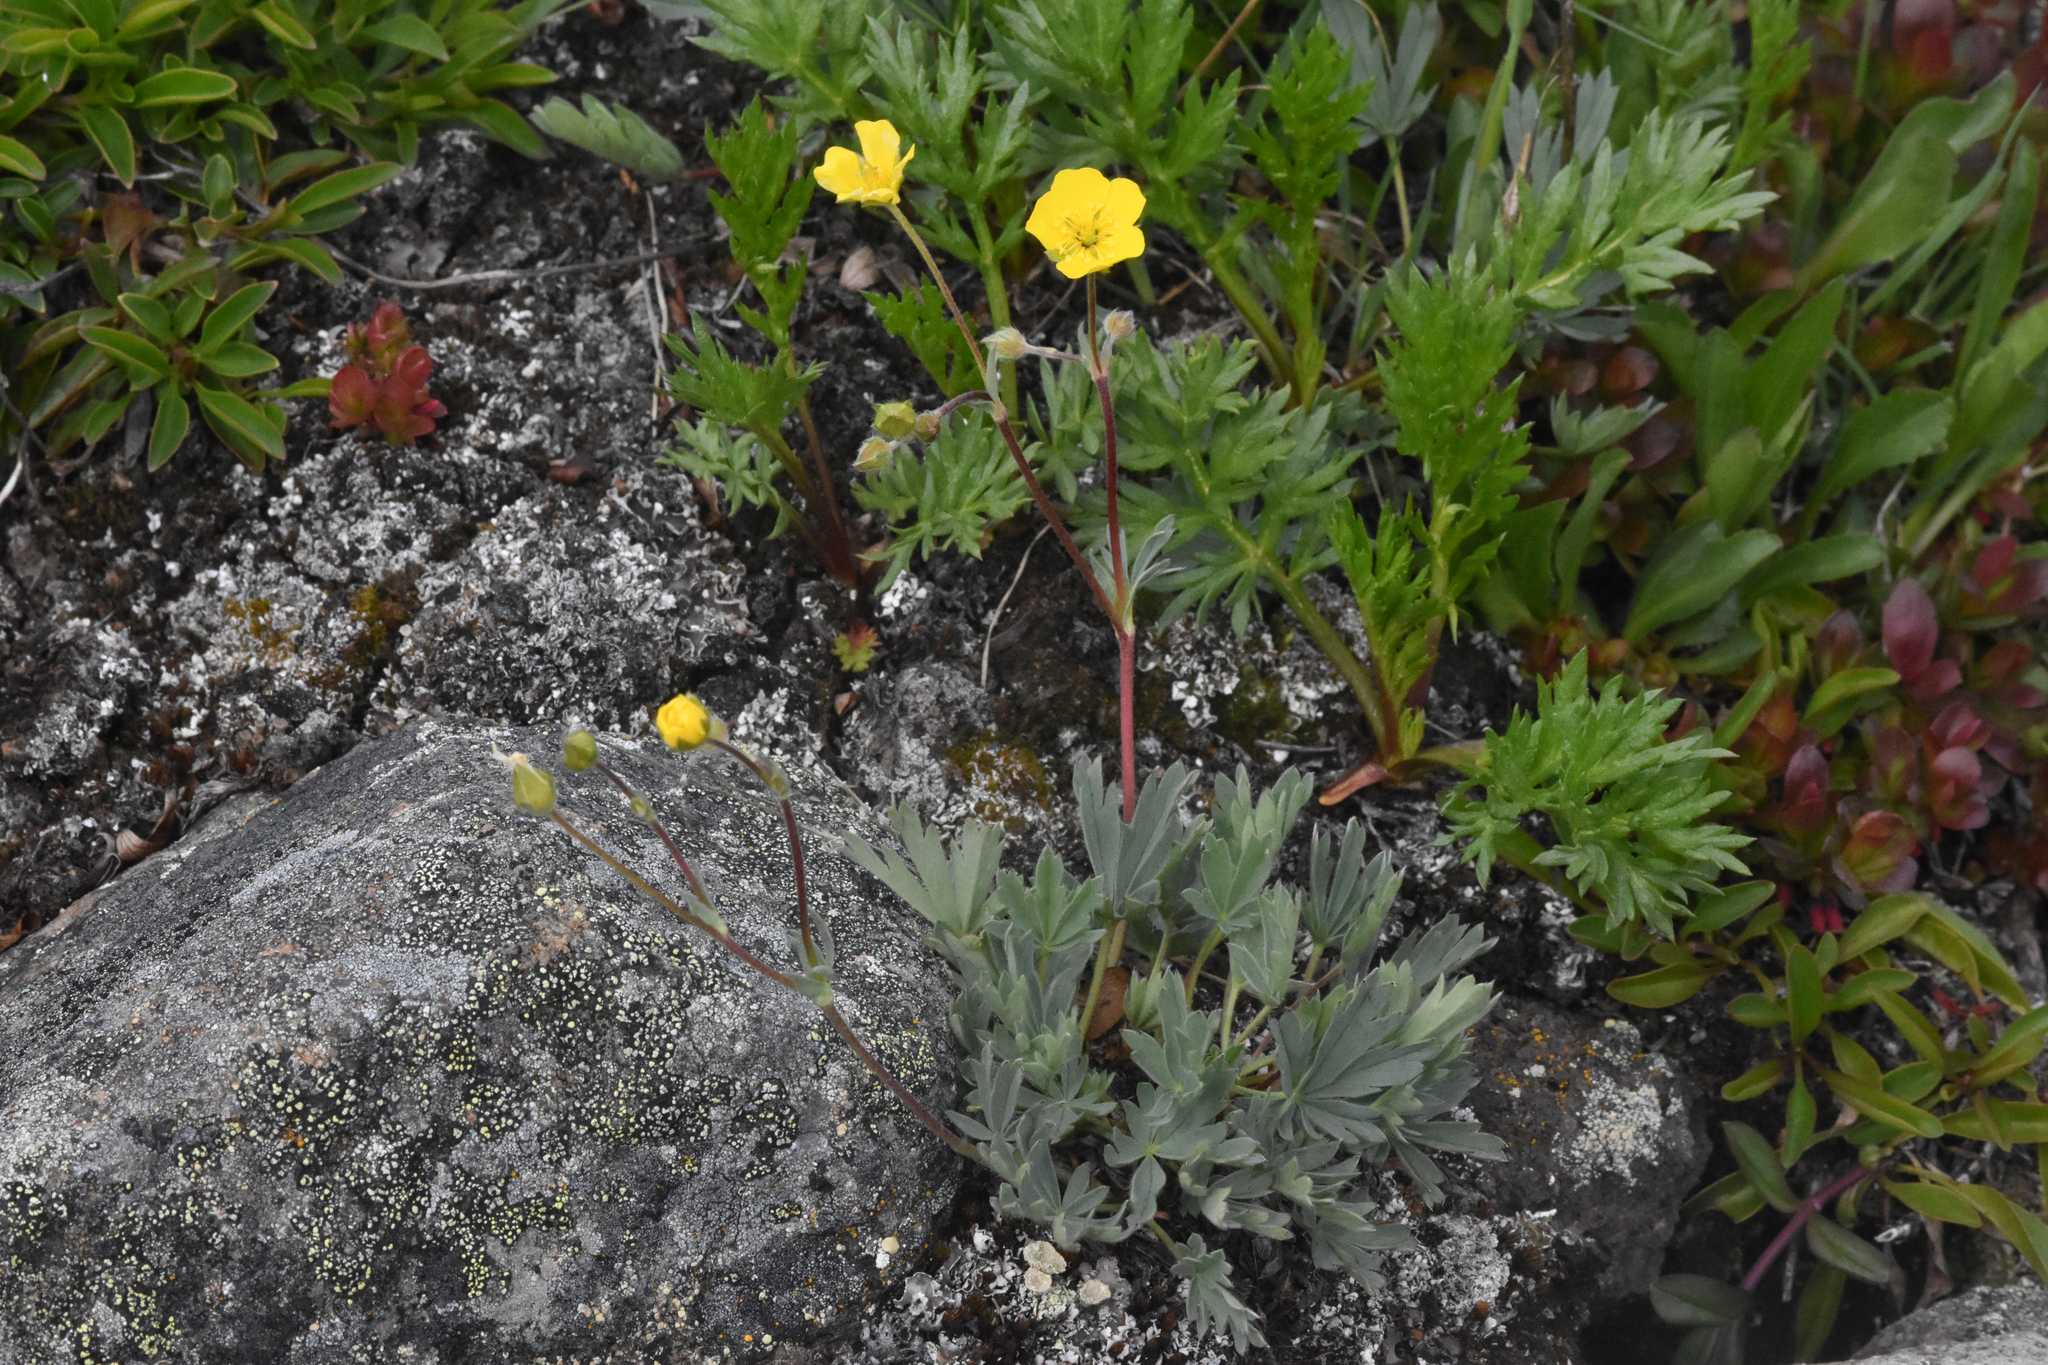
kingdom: Plantae
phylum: Tracheophyta
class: Magnoliopsida
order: Rosales
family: Rosaceae
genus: Potentilla
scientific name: Potentilla glaucophylla
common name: Blue-leaved cinquefoil
